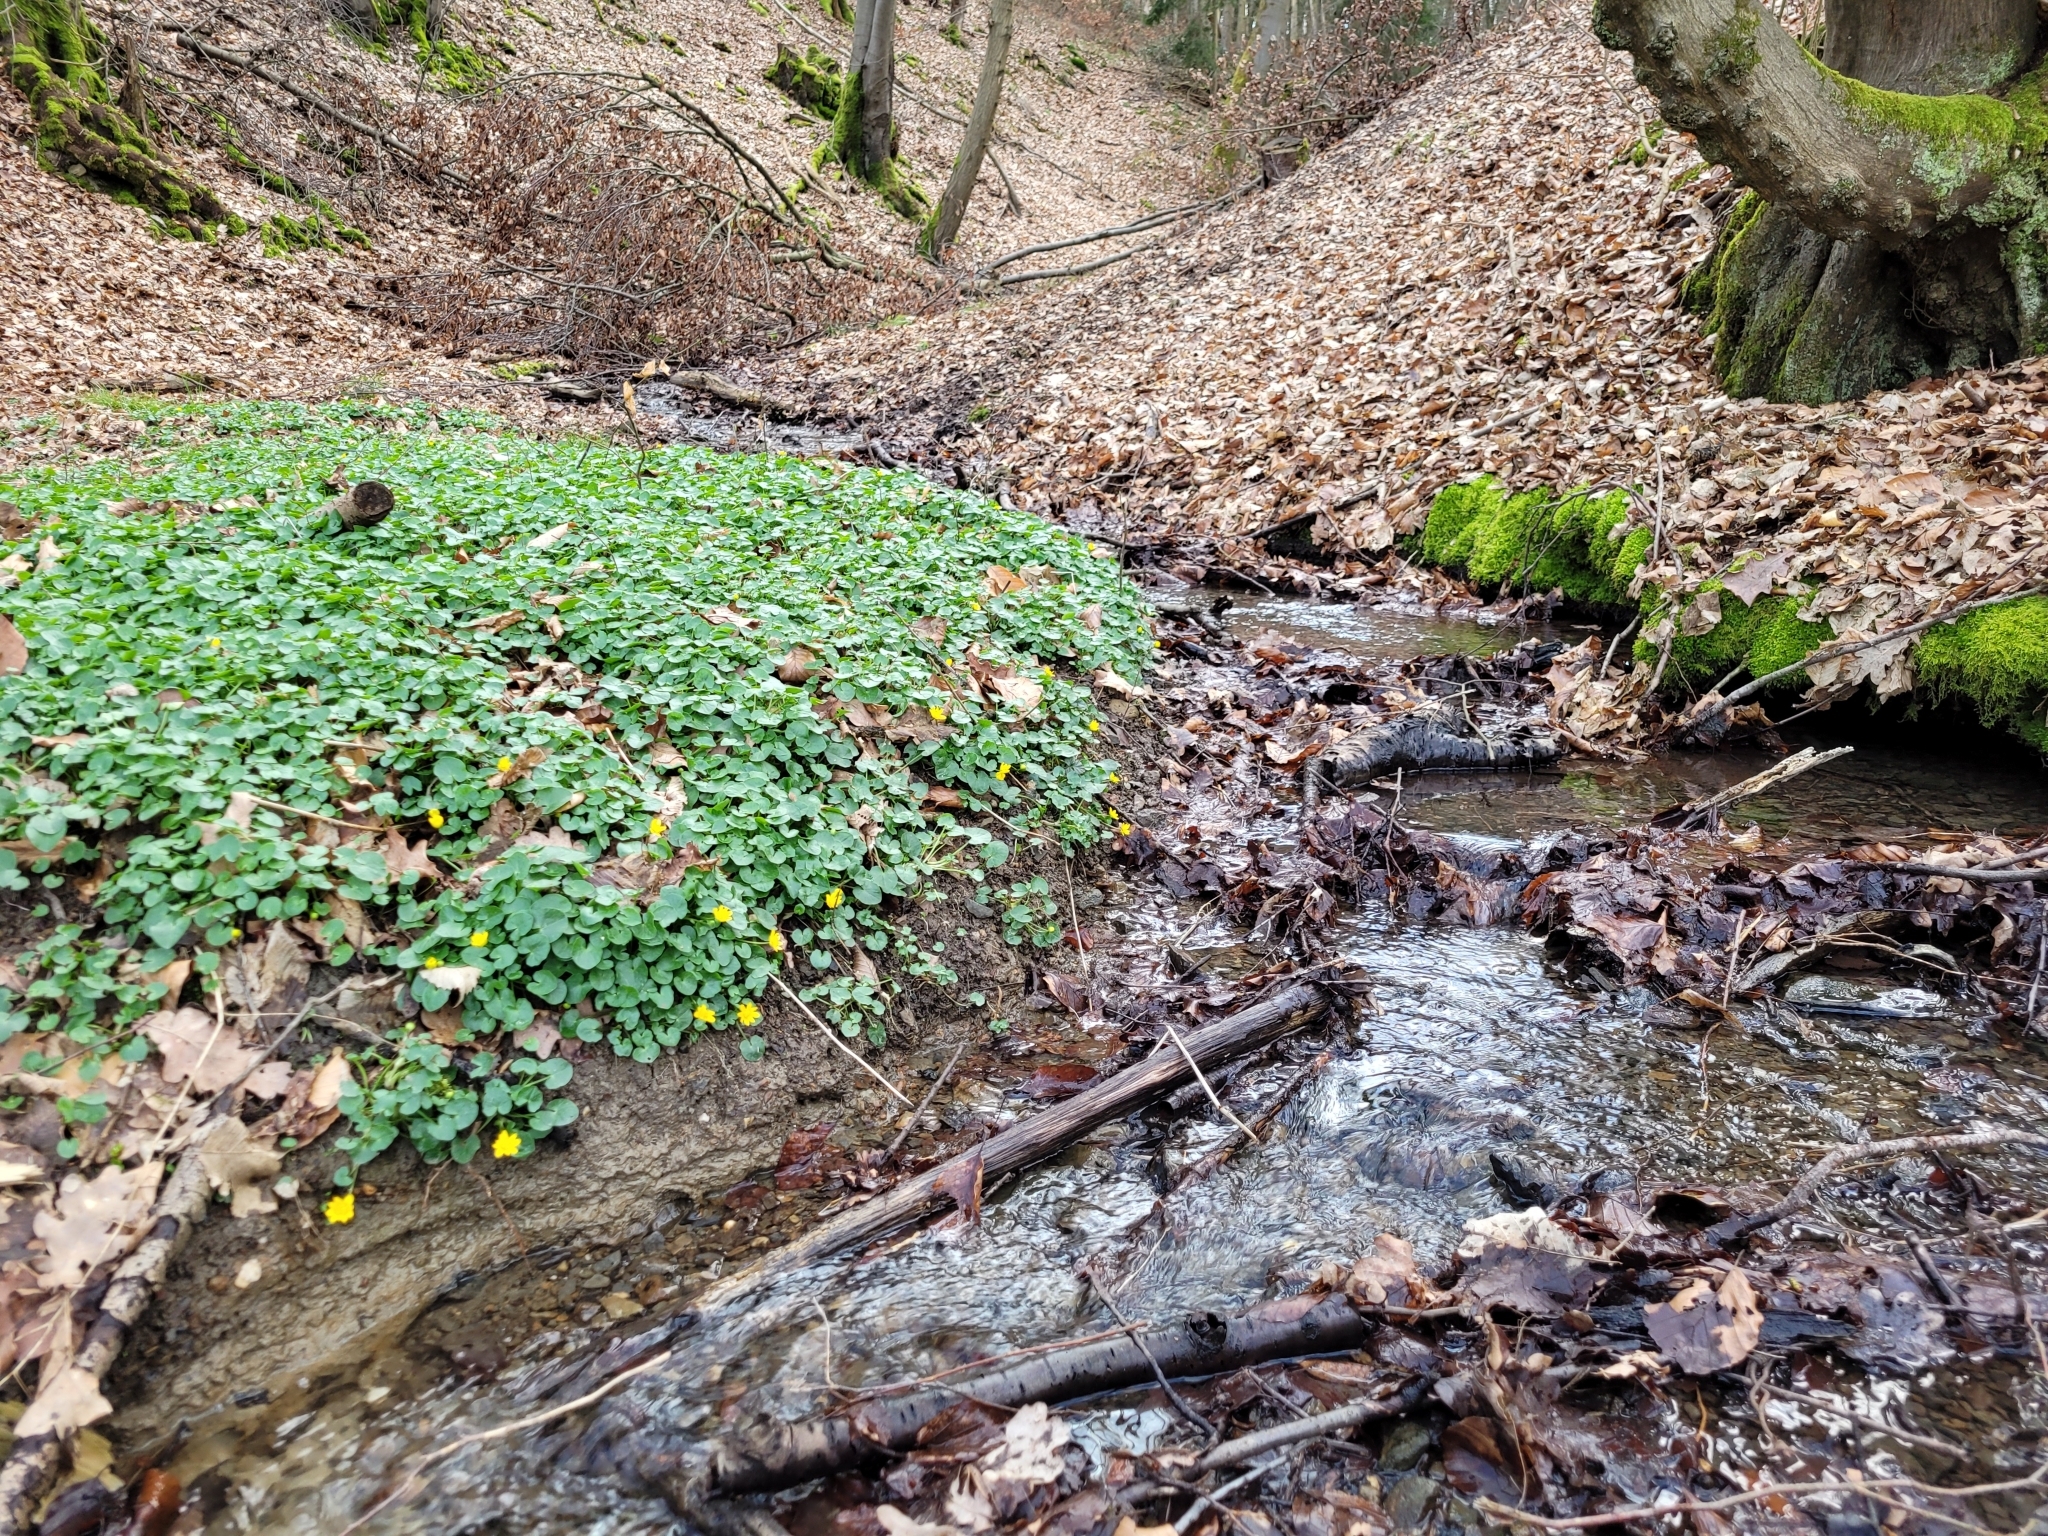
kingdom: Plantae
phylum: Tracheophyta
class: Magnoliopsida
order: Ranunculales
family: Ranunculaceae
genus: Ficaria
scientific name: Ficaria verna
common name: Lesser celandine
